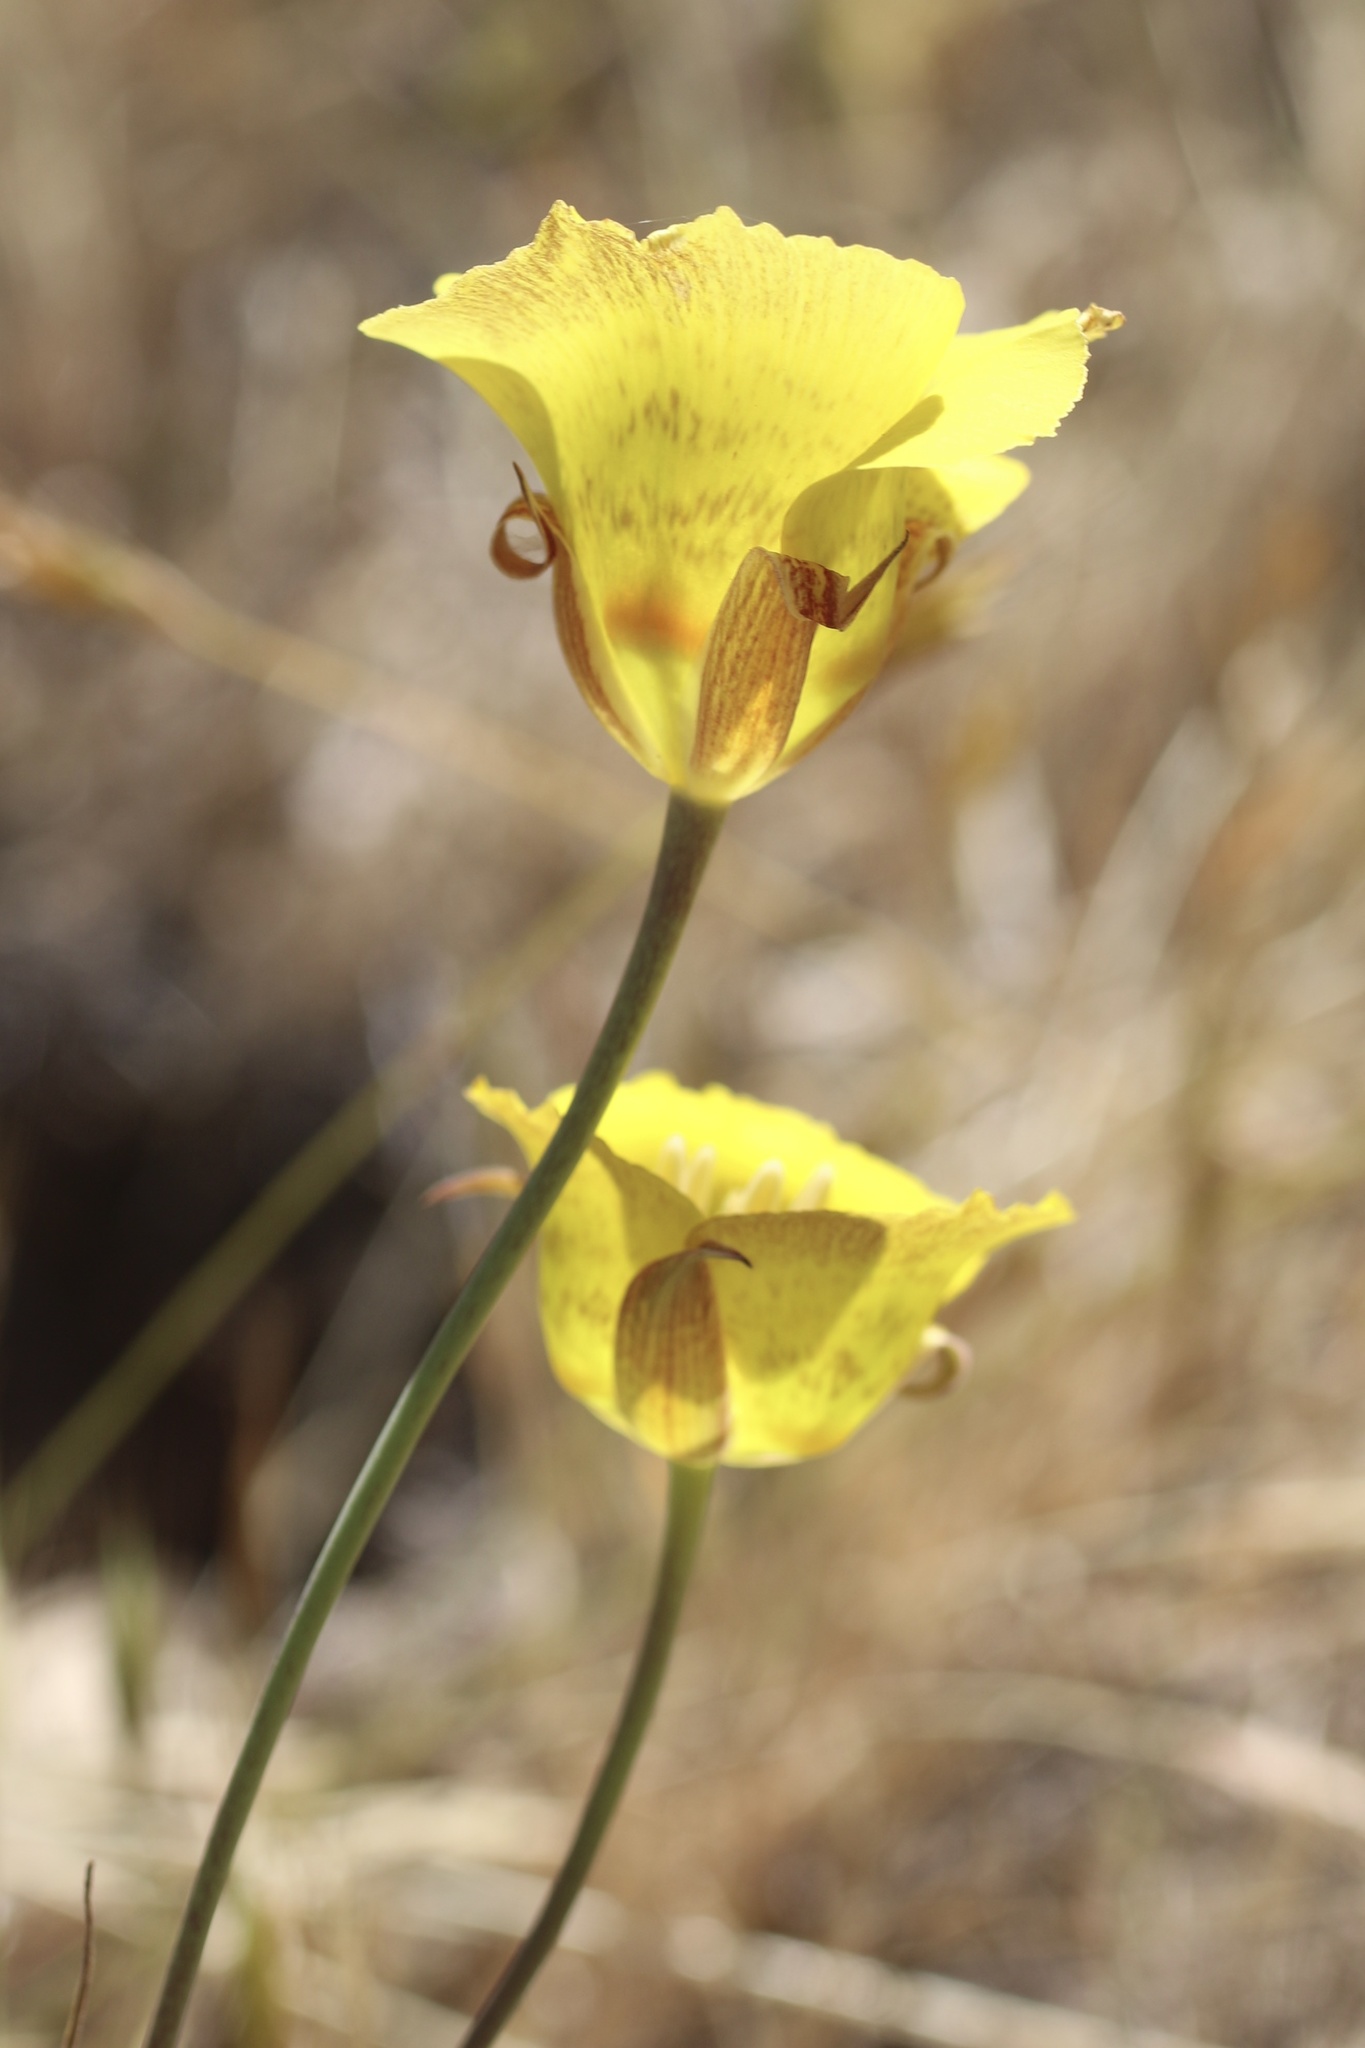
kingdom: Plantae
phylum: Tracheophyta
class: Liliopsida
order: Liliales
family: Liliaceae
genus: Calochortus
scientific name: Calochortus luteus
